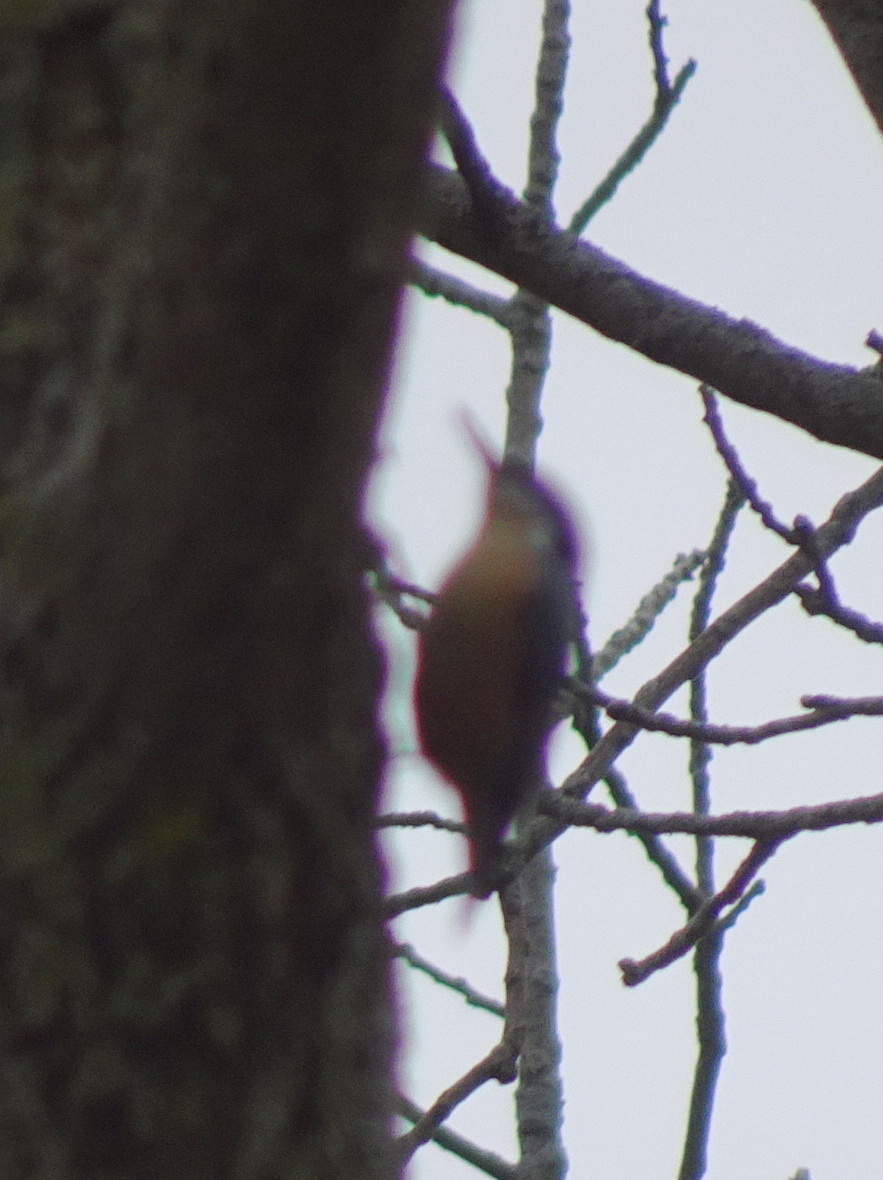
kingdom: Animalia
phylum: Chordata
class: Aves
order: Passeriformes
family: Sittidae
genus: Sitta
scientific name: Sitta canadensis
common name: Red-breasted nuthatch
